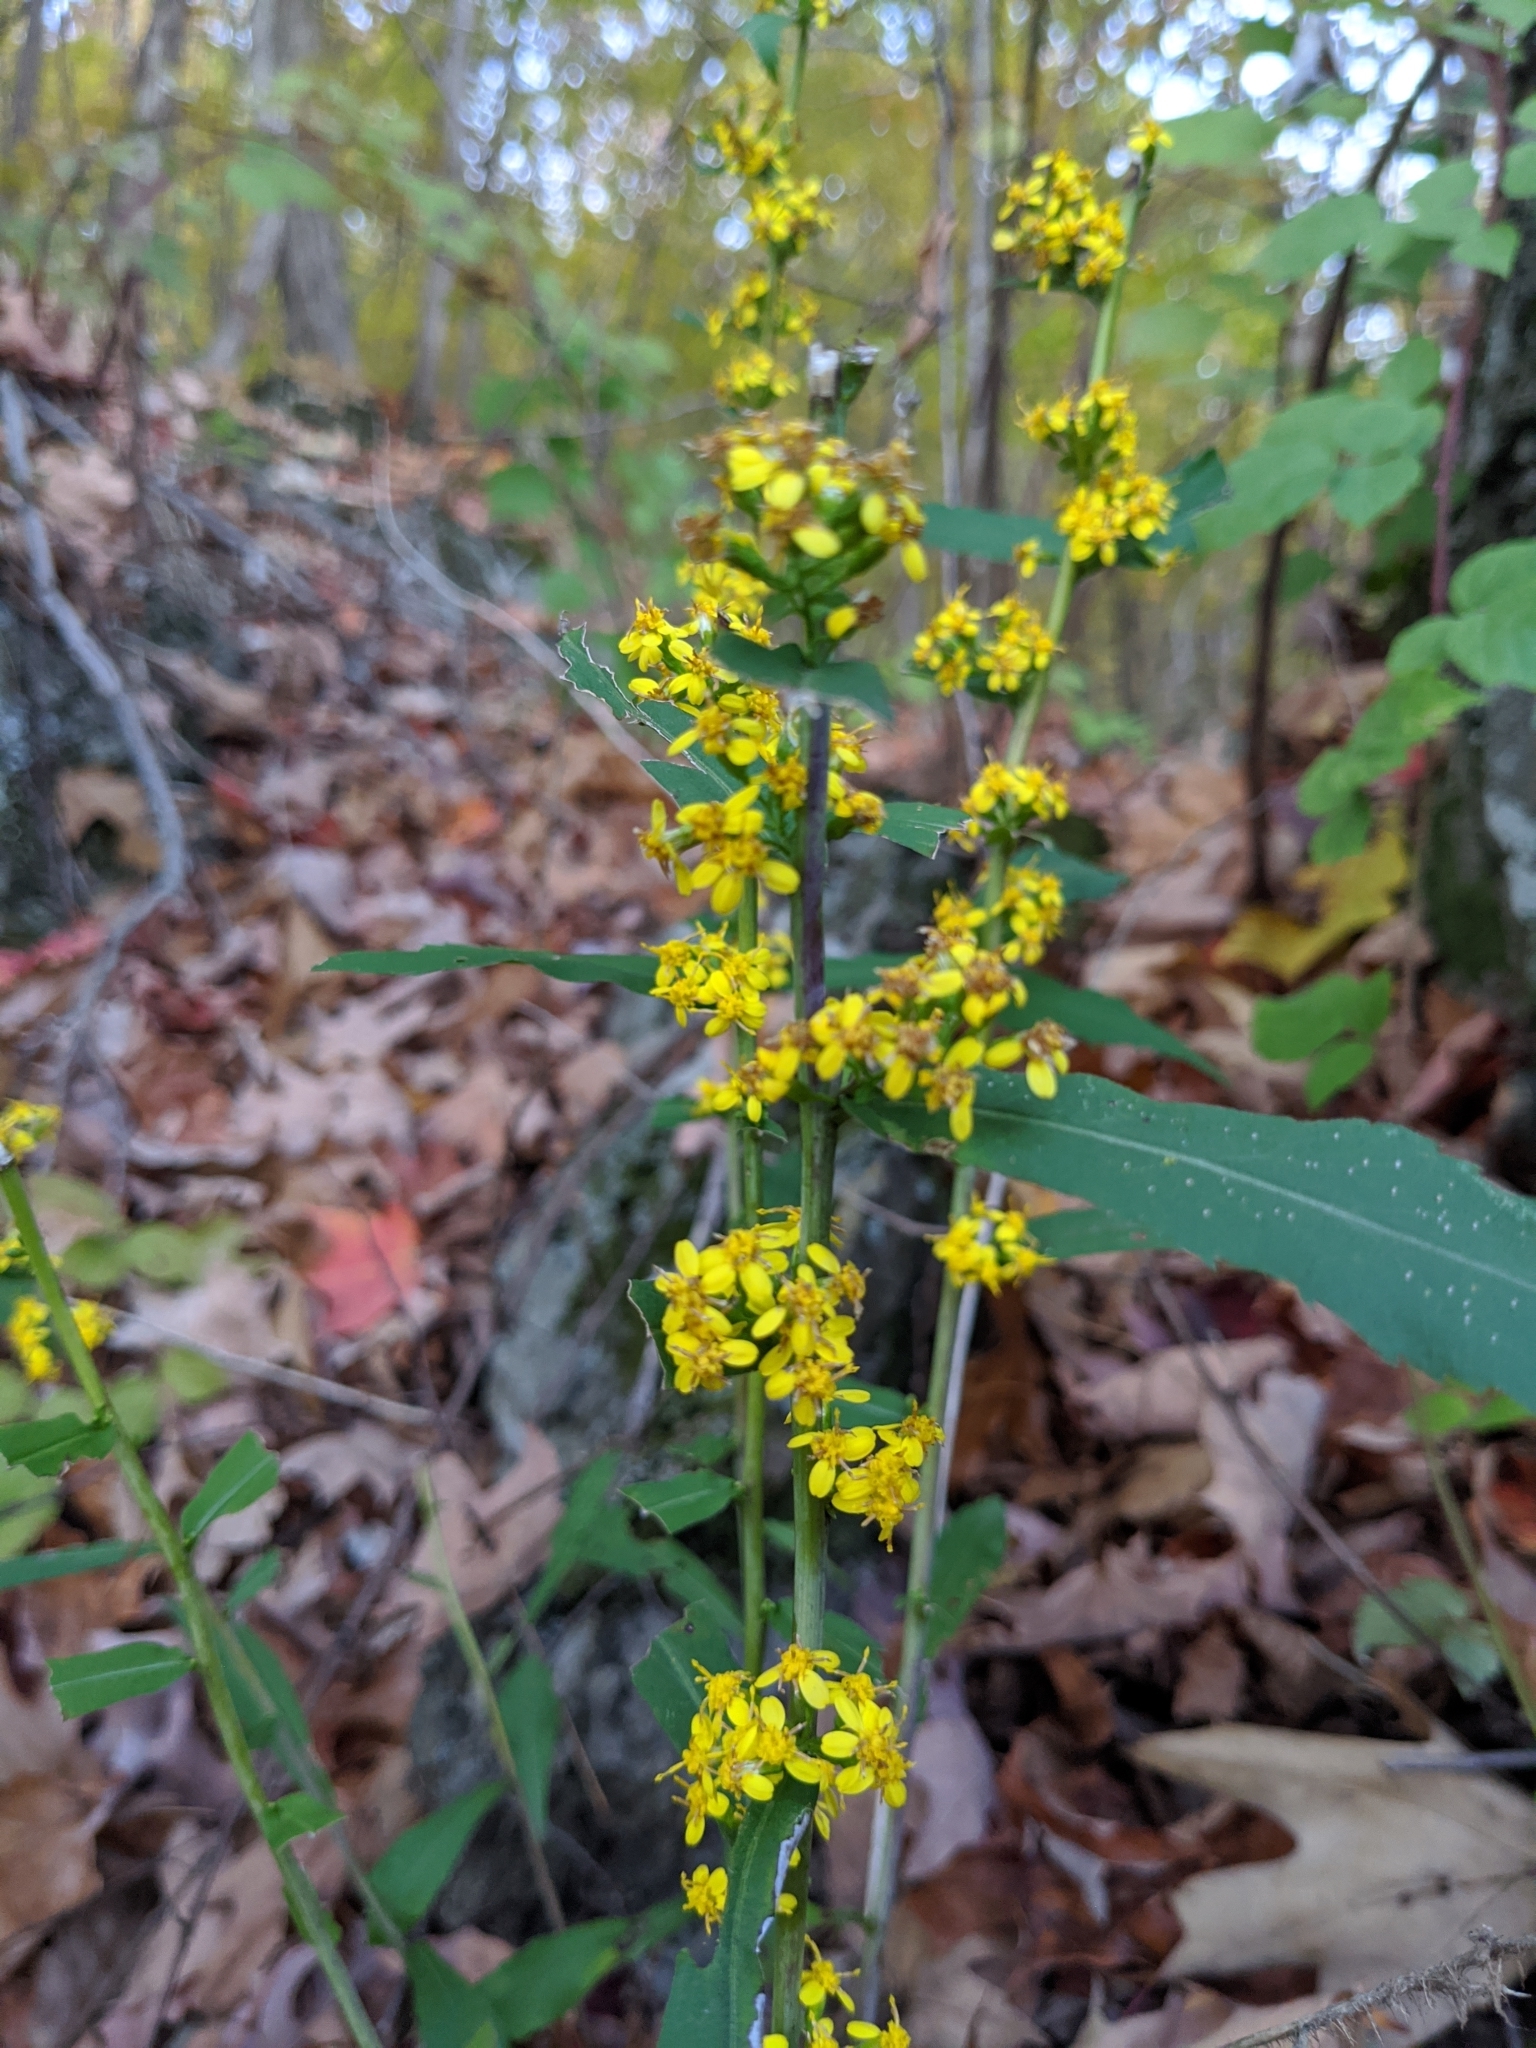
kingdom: Plantae
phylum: Tracheophyta
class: Magnoliopsida
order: Asterales
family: Asteraceae
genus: Solidago
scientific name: Solidago caesia
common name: Woodland goldenrod
